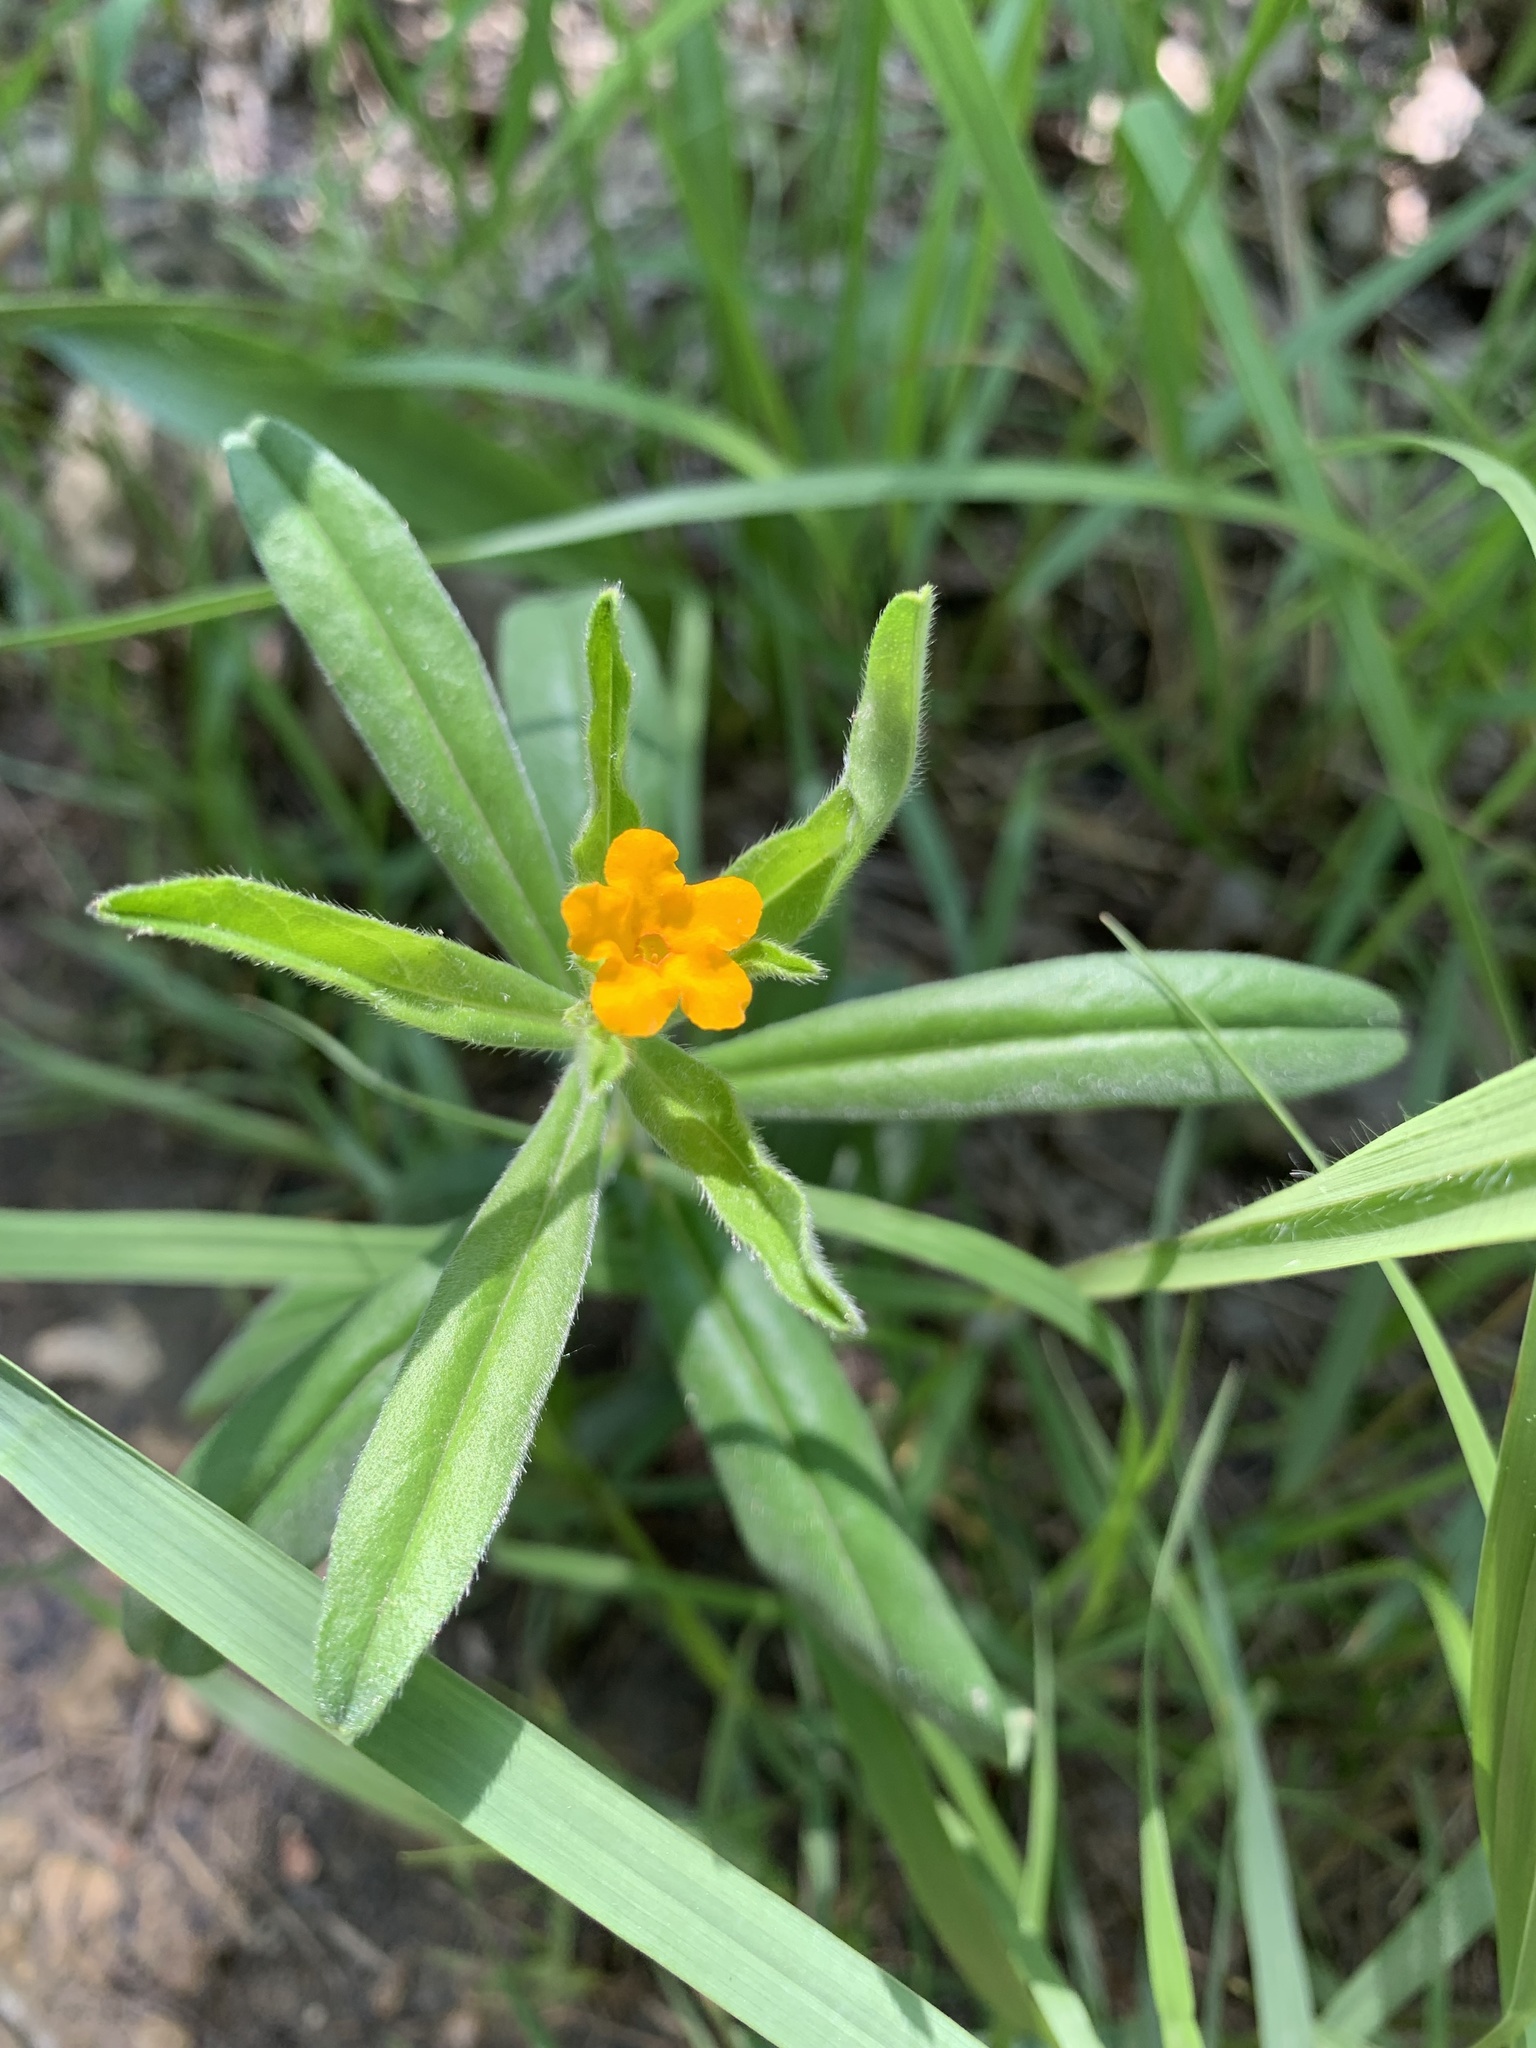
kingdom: Plantae
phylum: Tracheophyta
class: Magnoliopsida
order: Boraginales
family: Boraginaceae
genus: Lithospermum
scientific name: Lithospermum canescens
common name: Hoary puccoon
